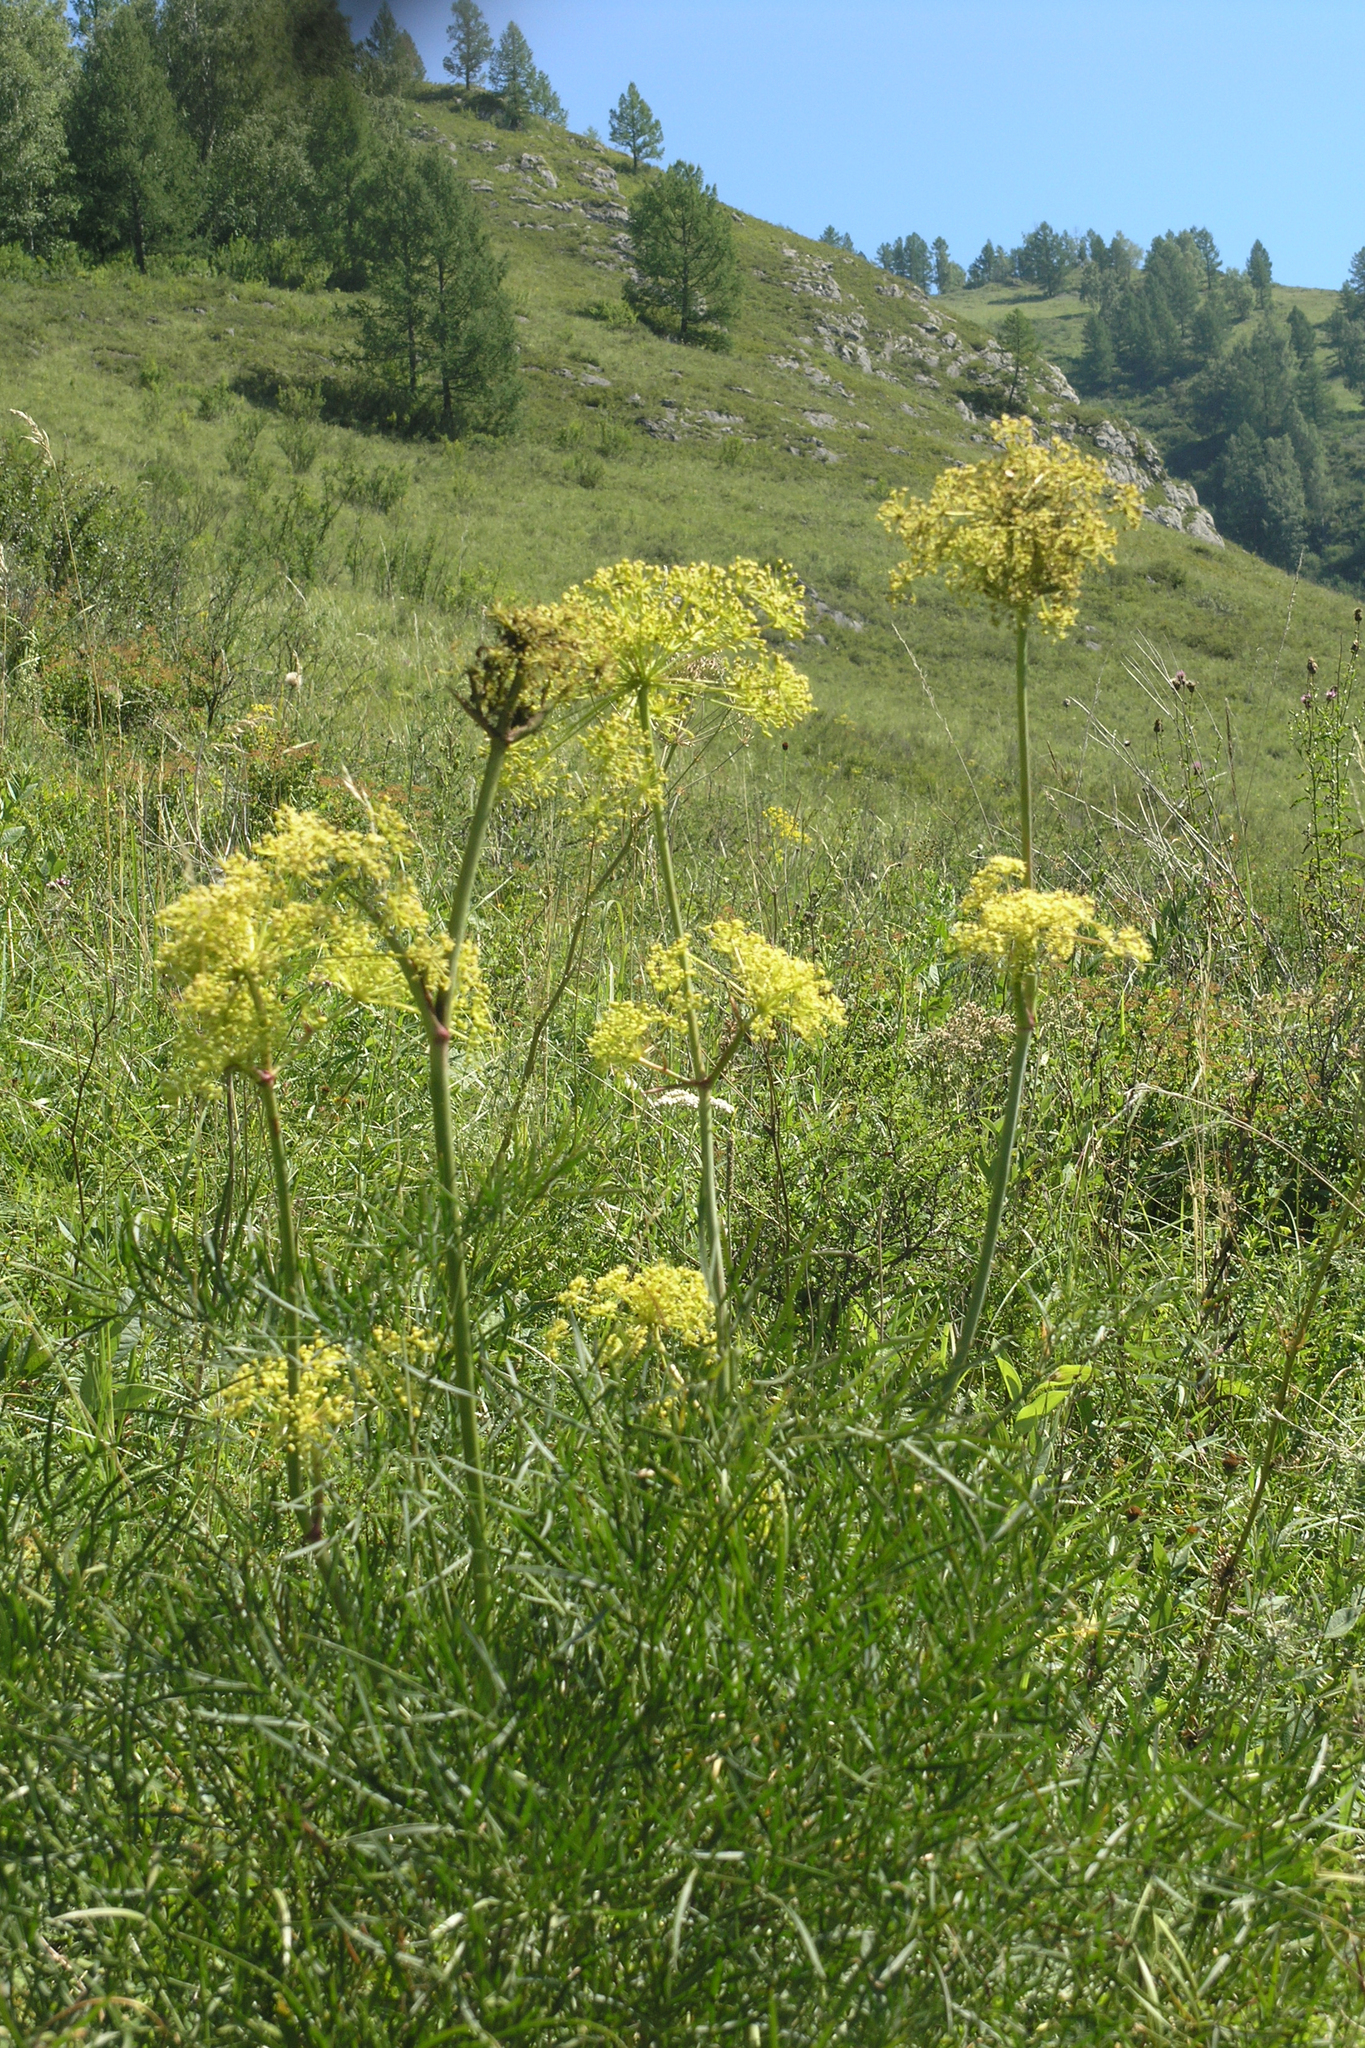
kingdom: Plantae
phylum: Tracheophyta
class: Magnoliopsida
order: Apiales
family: Apiaceae
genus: Peucedanum
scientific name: Peucedanum morisonii
